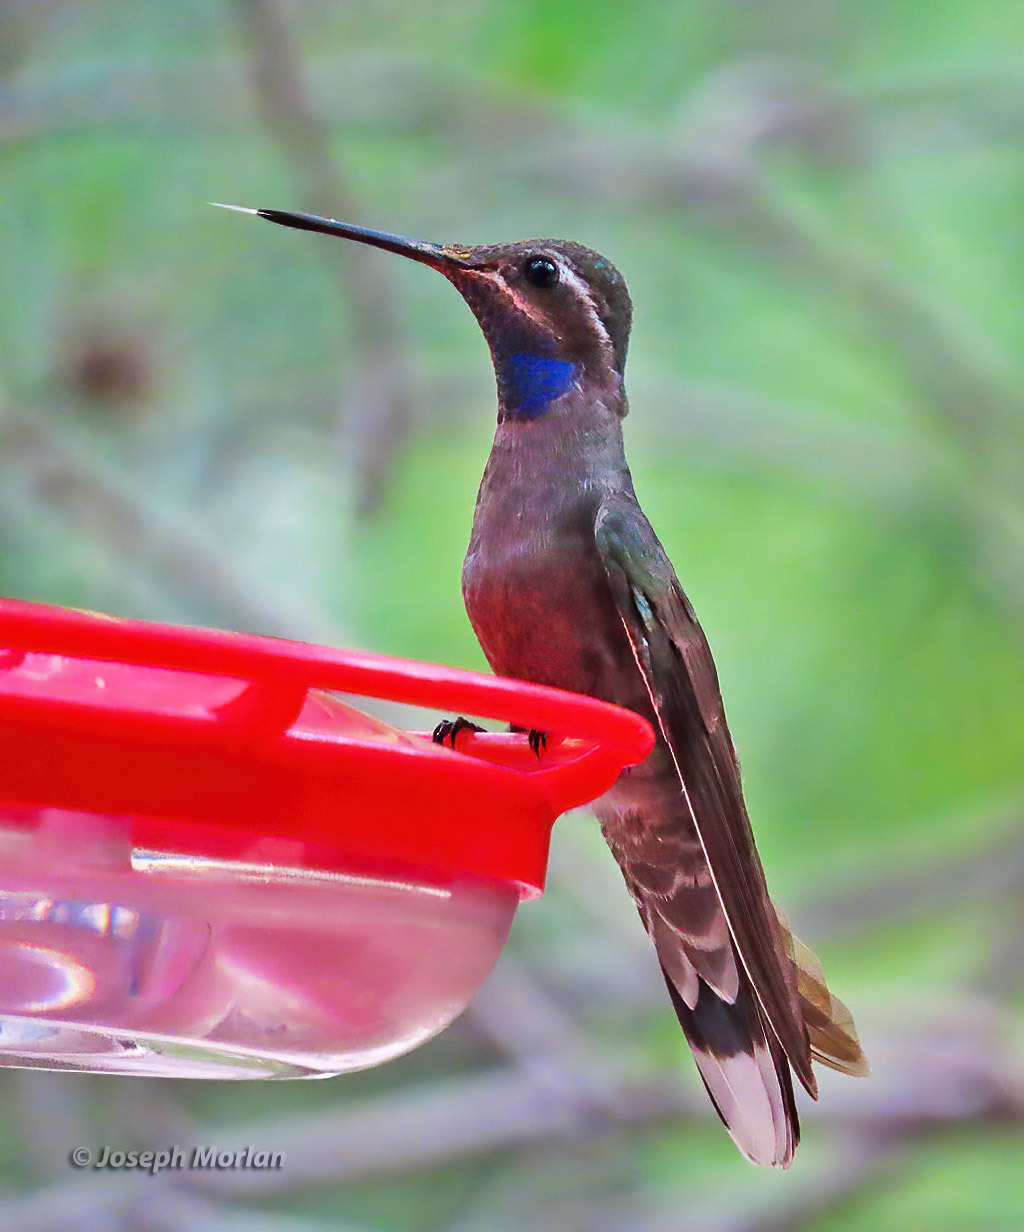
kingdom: Animalia
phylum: Chordata
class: Aves
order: Apodiformes
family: Trochilidae
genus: Lampornis
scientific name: Lampornis clemenciae
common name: Blue-throated mountaingem
